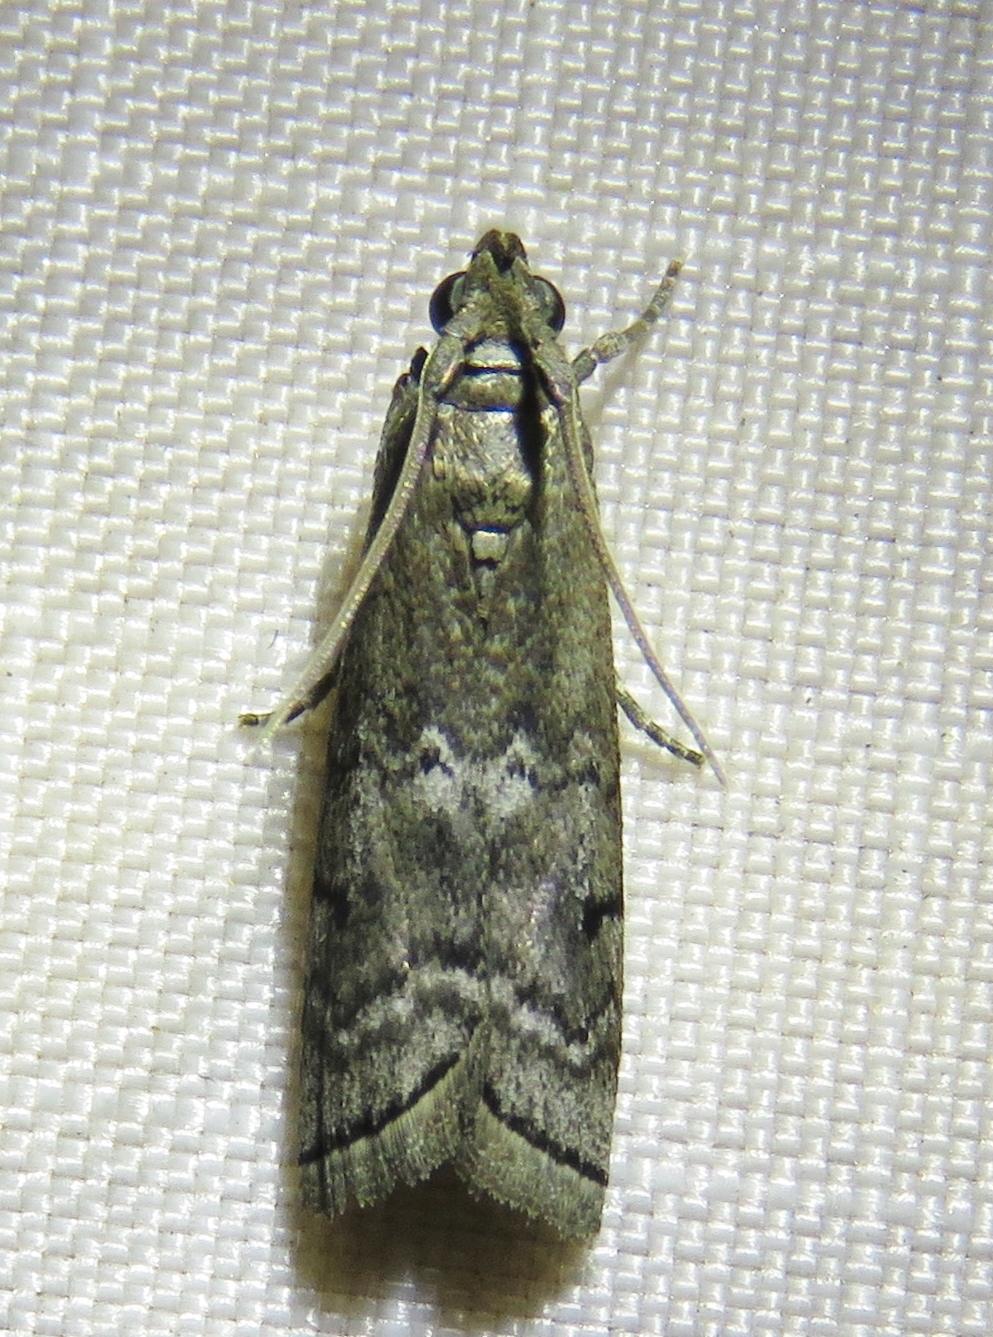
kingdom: Animalia
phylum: Arthropoda
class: Insecta
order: Lepidoptera
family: Pyralidae
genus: Ancylosis
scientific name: Ancylosis Canarsia ulmiarrosorella
